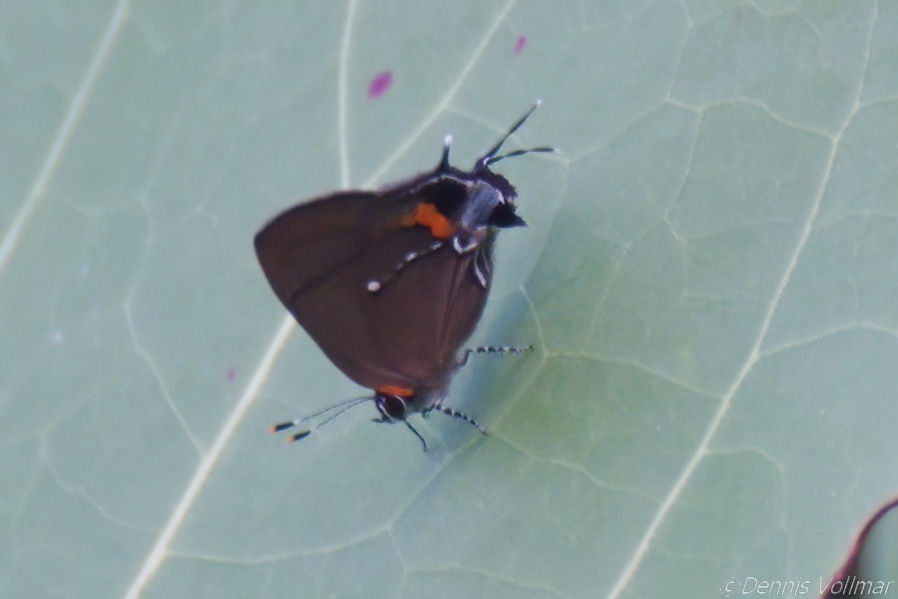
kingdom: Animalia
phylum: Arthropoda
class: Insecta
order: Lepidoptera
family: Lycaenidae
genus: Thecla
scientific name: Thecla angelia
